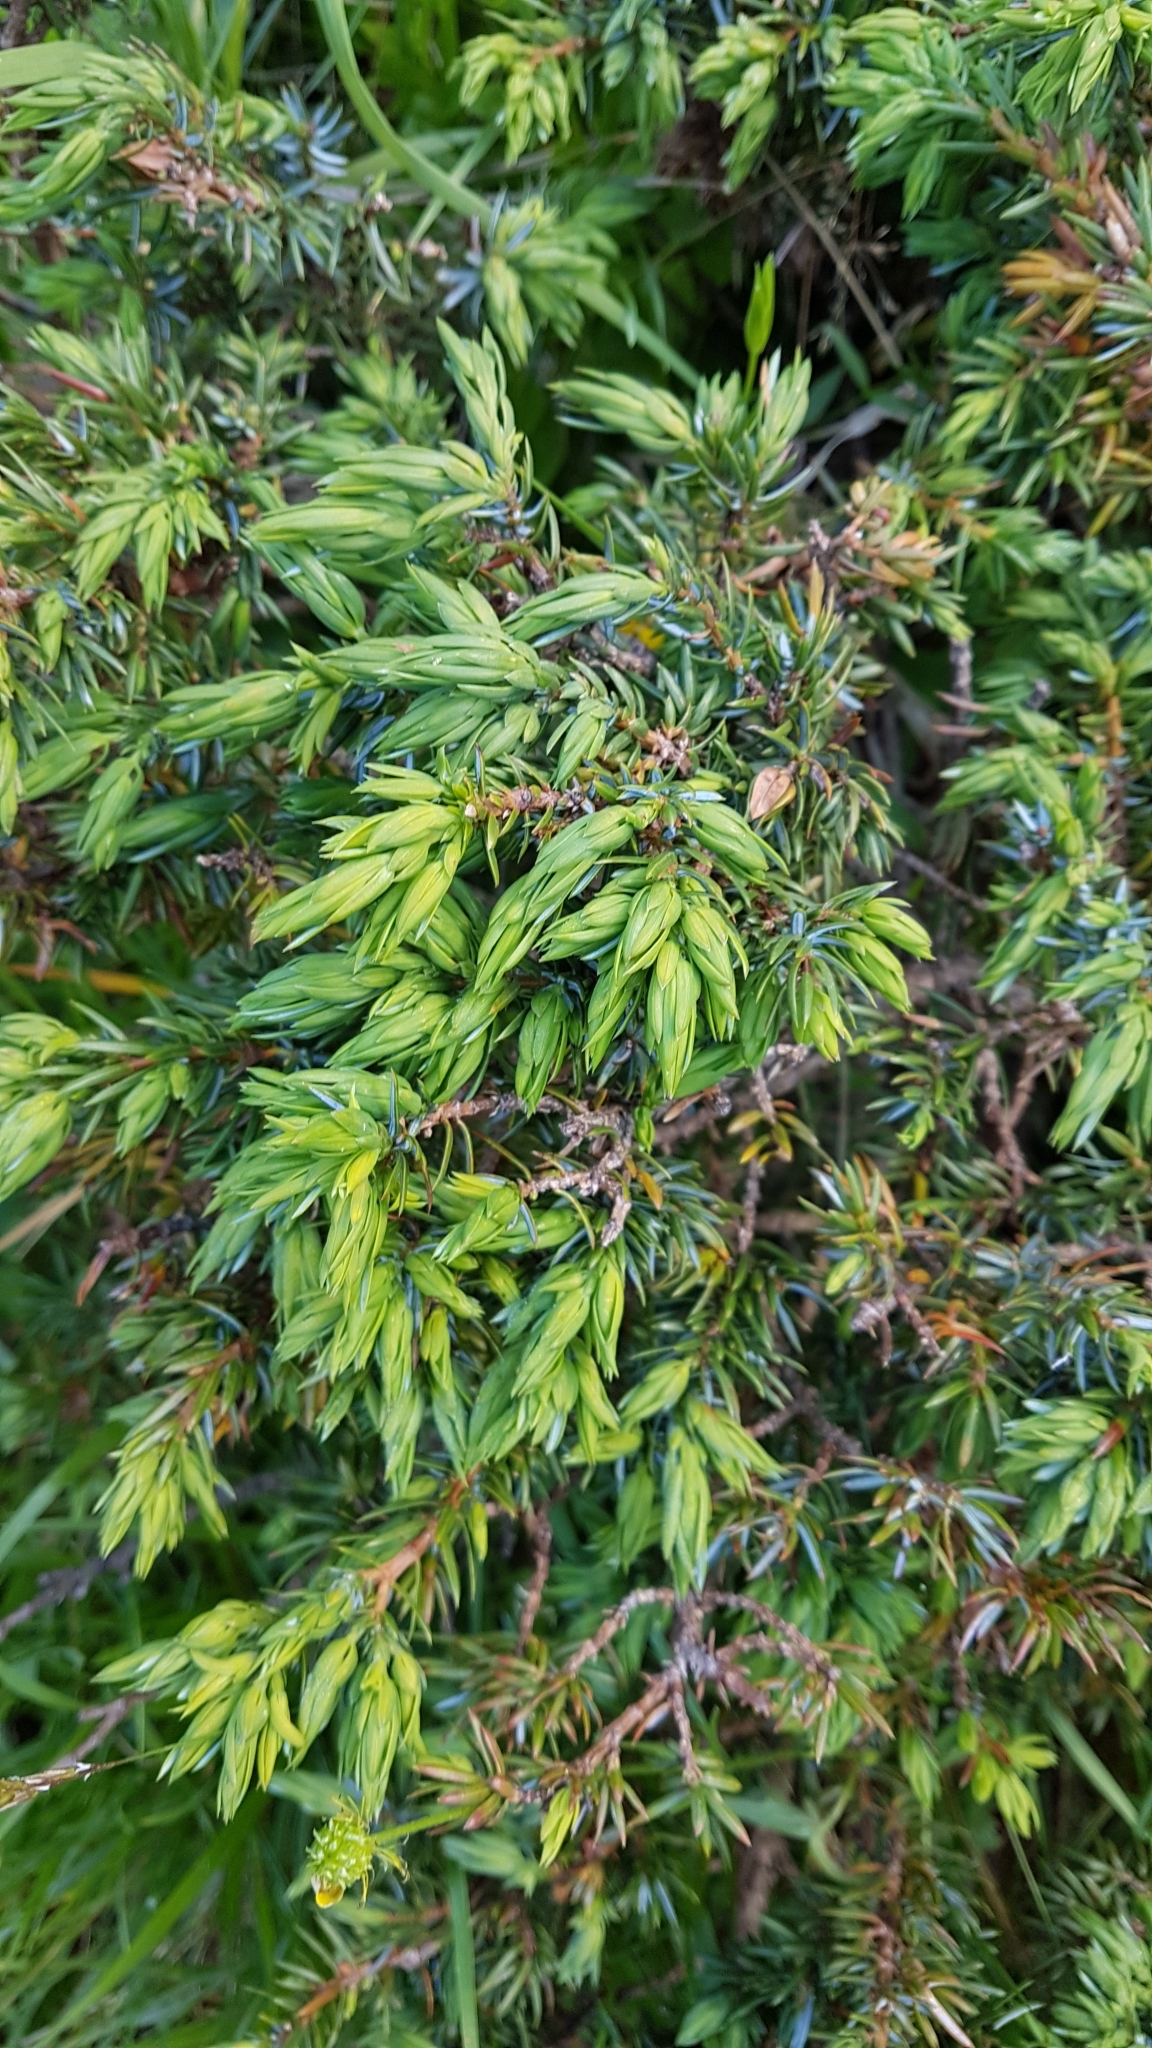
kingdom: Plantae
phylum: Tracheophyta
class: Pinopsida
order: Pinales
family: Cupressaceae
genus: Juniperus
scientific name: Juniperus communis
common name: Common juniper
